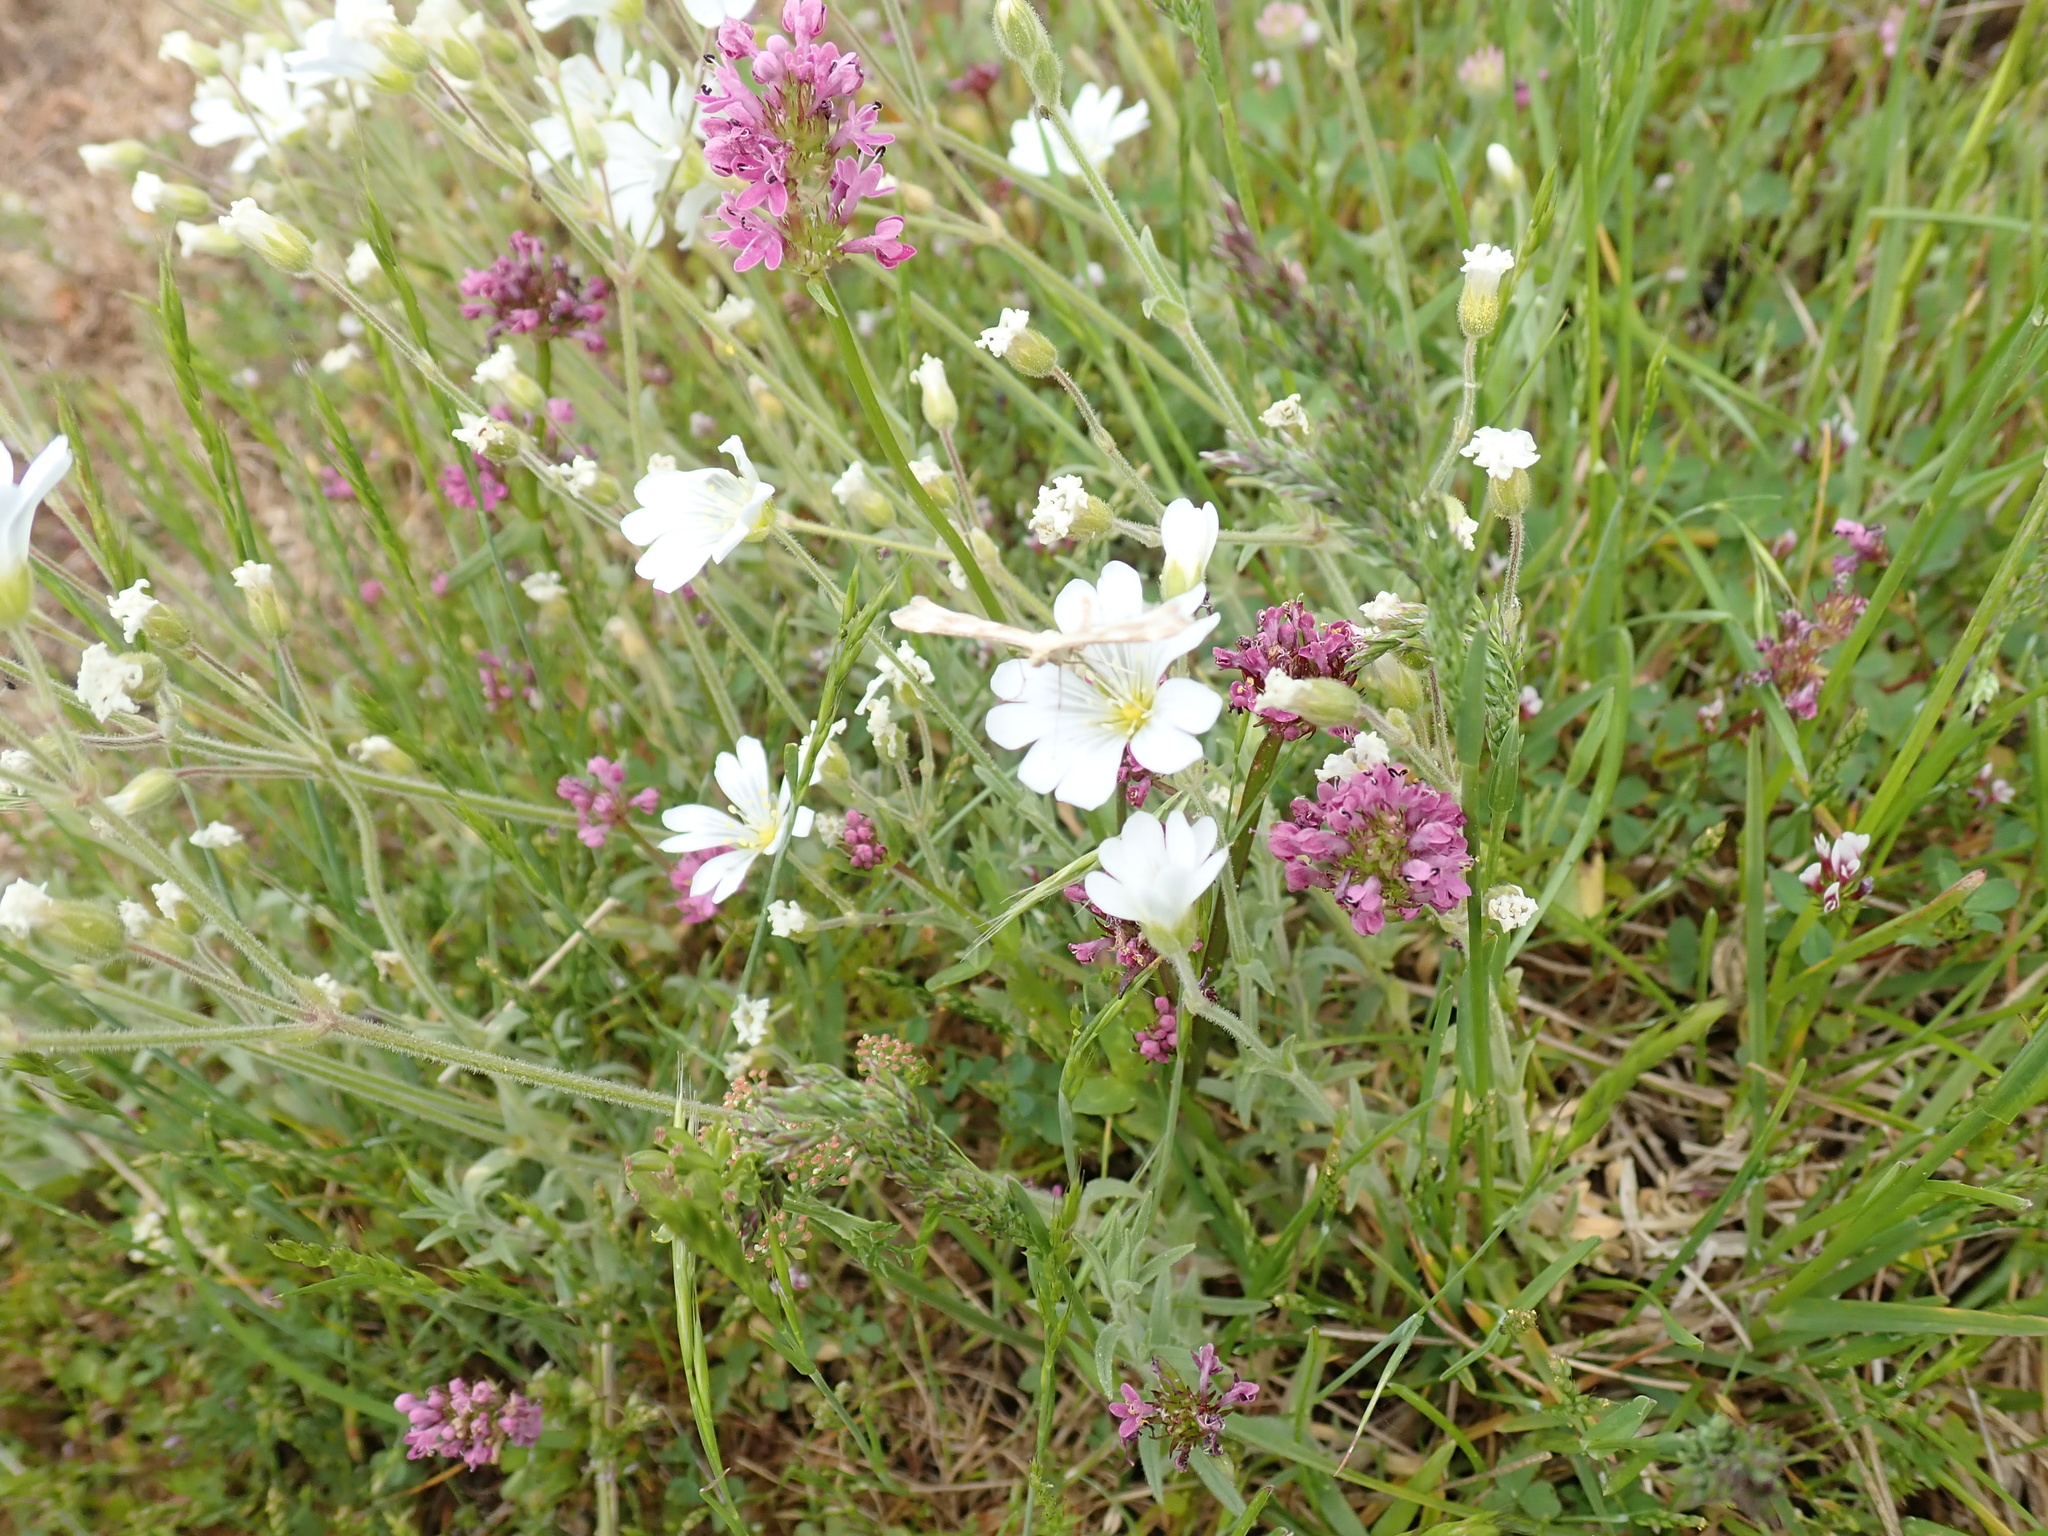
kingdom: Plantae
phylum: Tracheophyta
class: Magnoliopsida
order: Dipsacales
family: Caprifoliaceae
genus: Plectritis
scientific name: Plectritis congesta
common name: Pink plectritis
